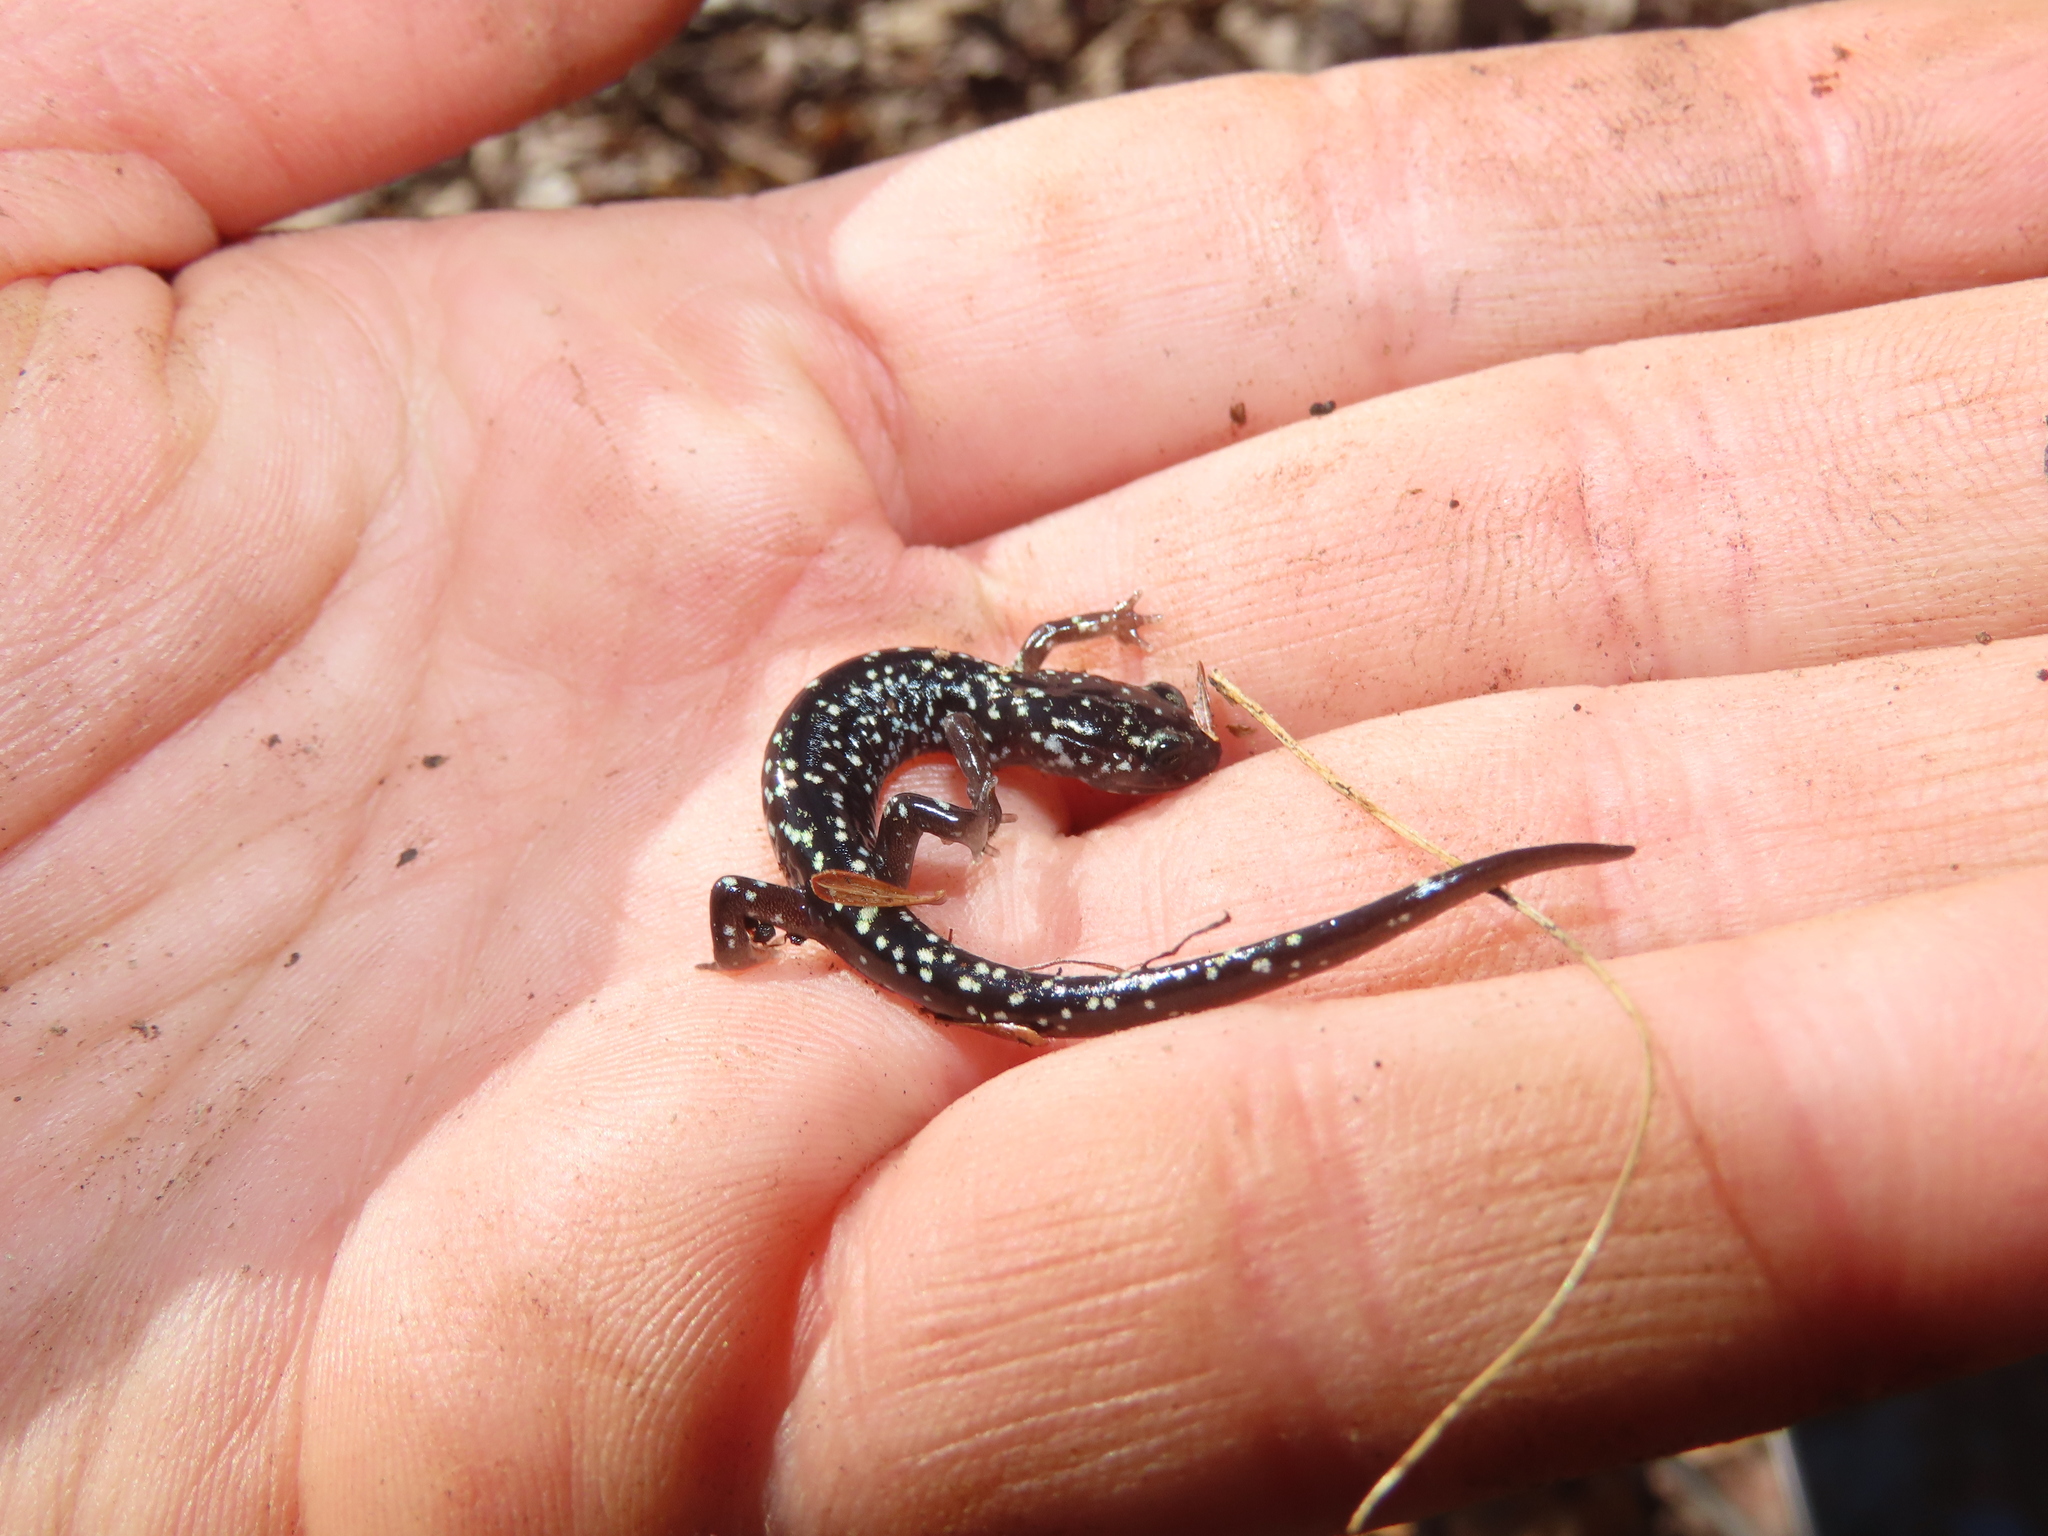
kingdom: Animalia
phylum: Chordata
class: Amphibia
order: Caudata
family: Plethodontidae
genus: Plethodon
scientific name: Plethodon glutinosus
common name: Northern slimy salamander
